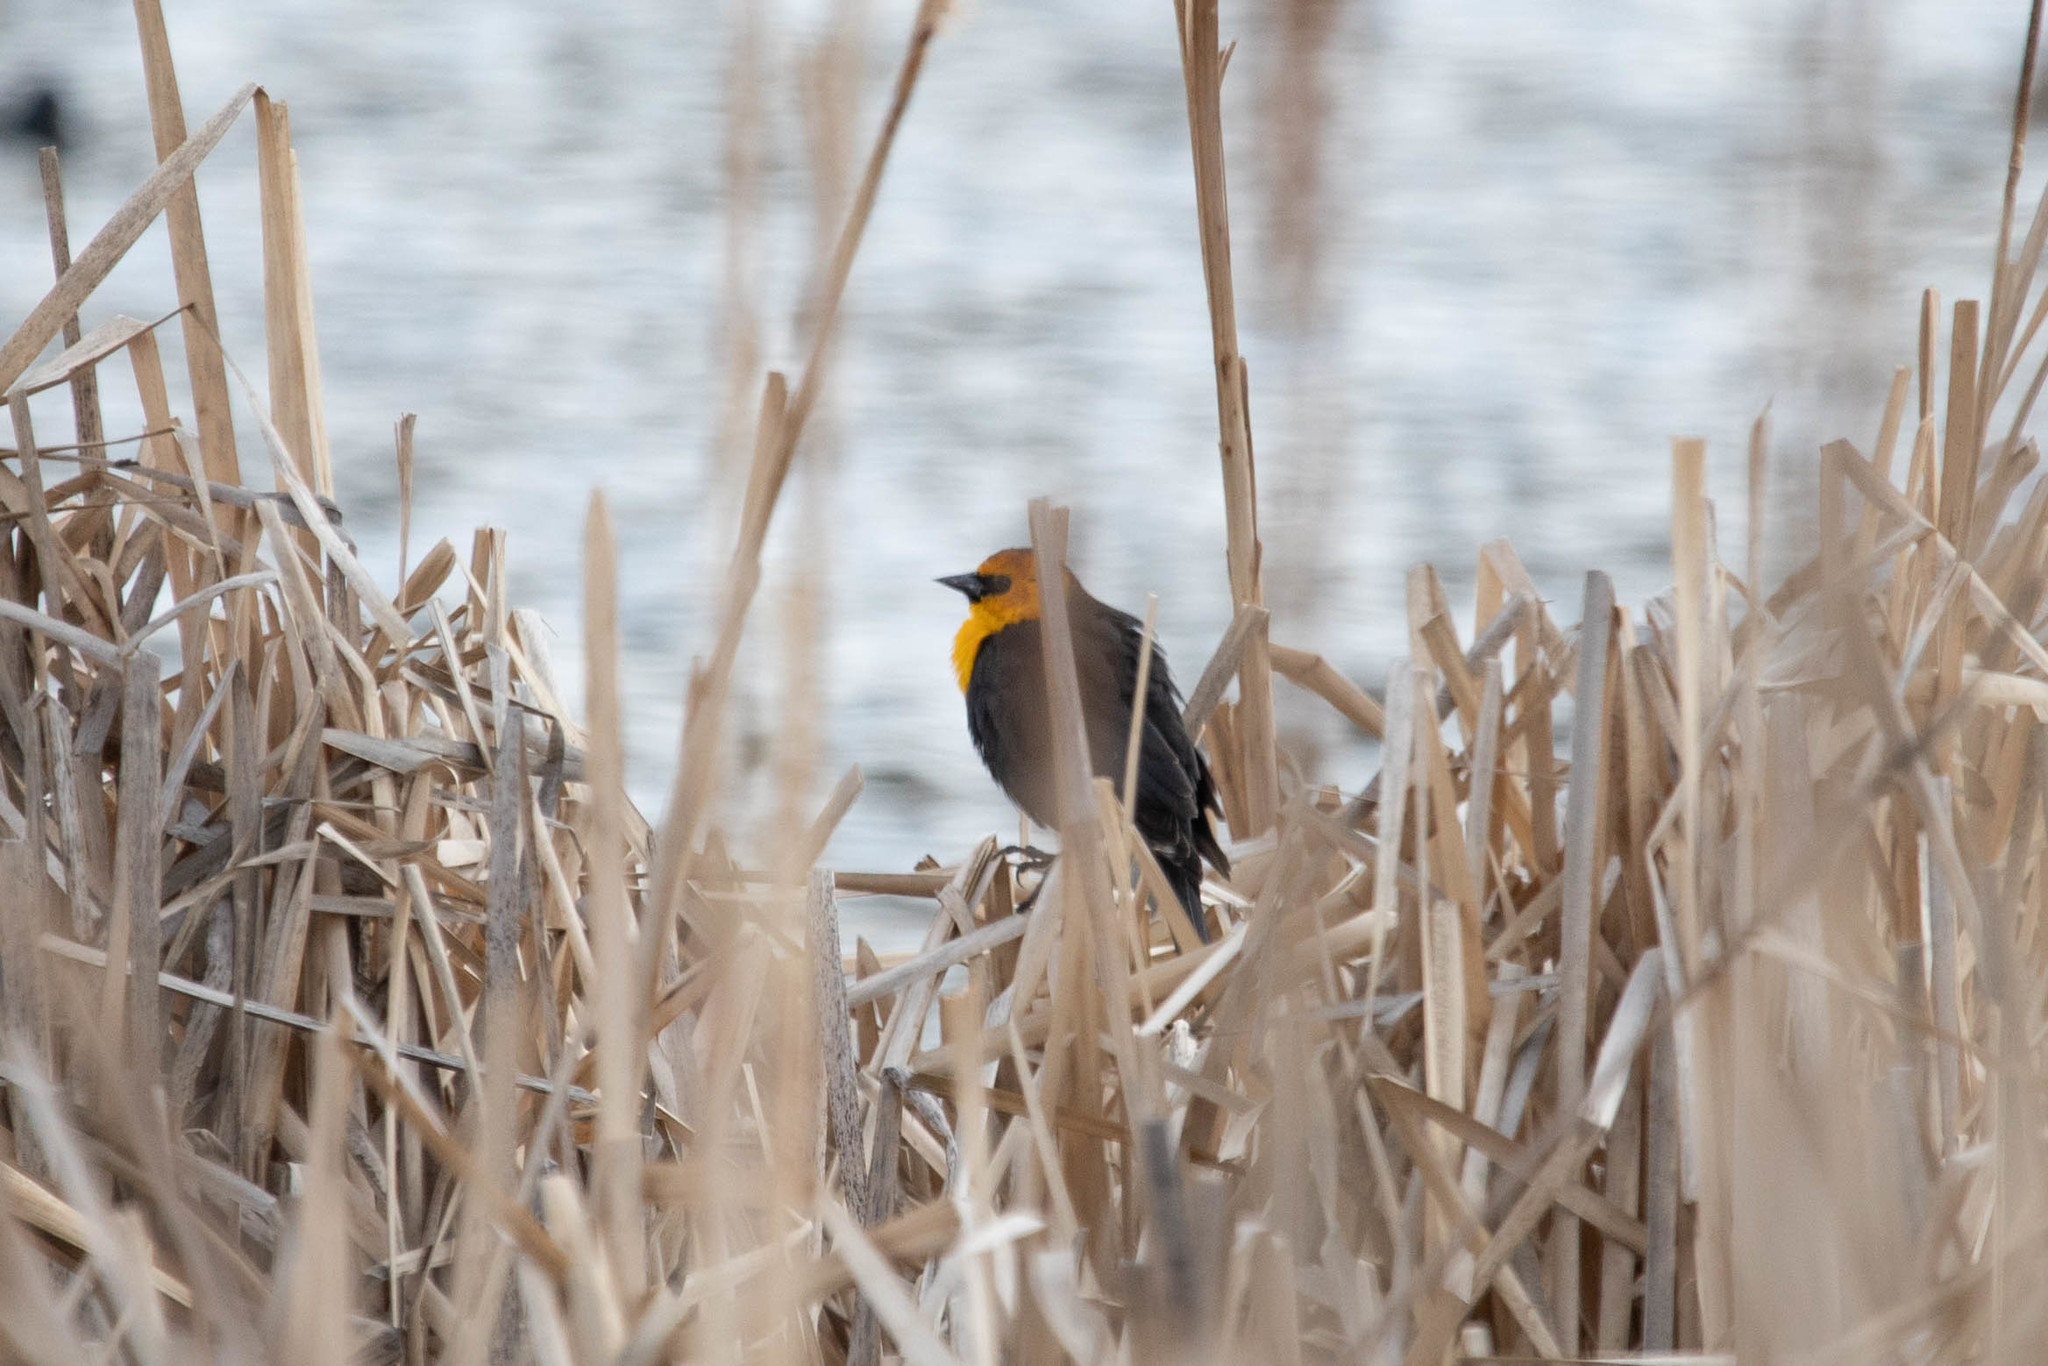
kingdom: Animalia
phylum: Chordata
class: Aves
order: Passeriformes
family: Icteridae
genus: Xanthocephalus
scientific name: Xanthocephalus xanthocephalus
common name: Yellow-headed blackbird
